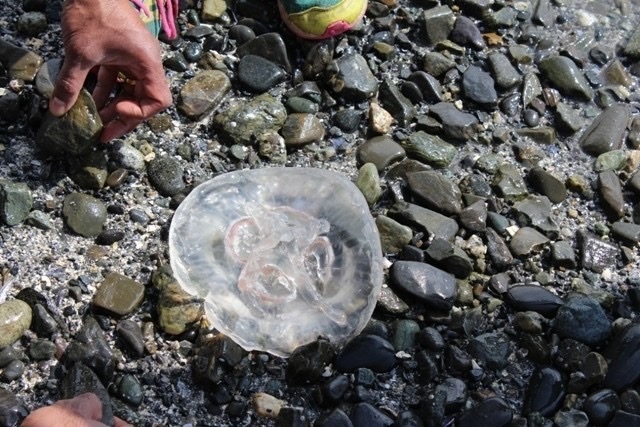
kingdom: Animalia
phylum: Cnidaria
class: Scyphozoa
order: Semaeostomeae
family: Ulmaridae
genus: Aurelia
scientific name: Aurelia
